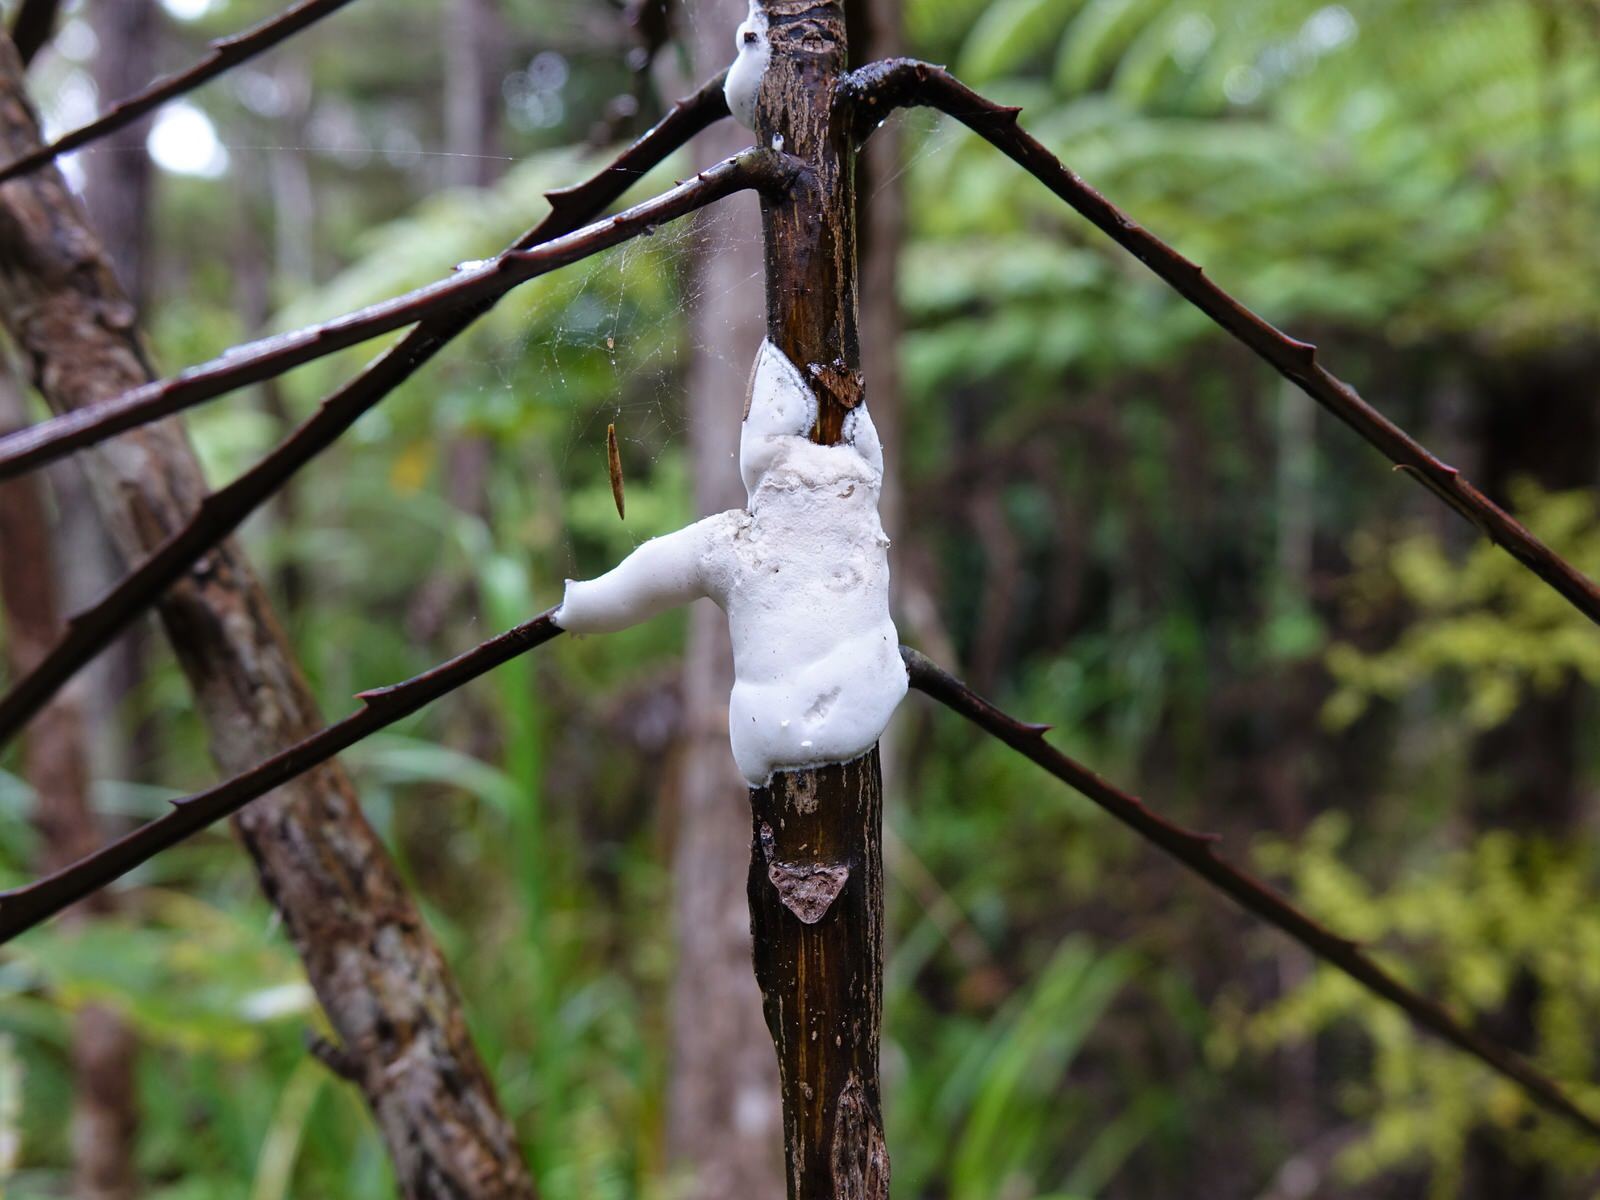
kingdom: Fungi
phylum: Basidiomycota
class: Pucciniomycetes
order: Septobasidiales
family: Septobasidiaceae
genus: Septobasidium
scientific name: Septobasidium simmondsii
